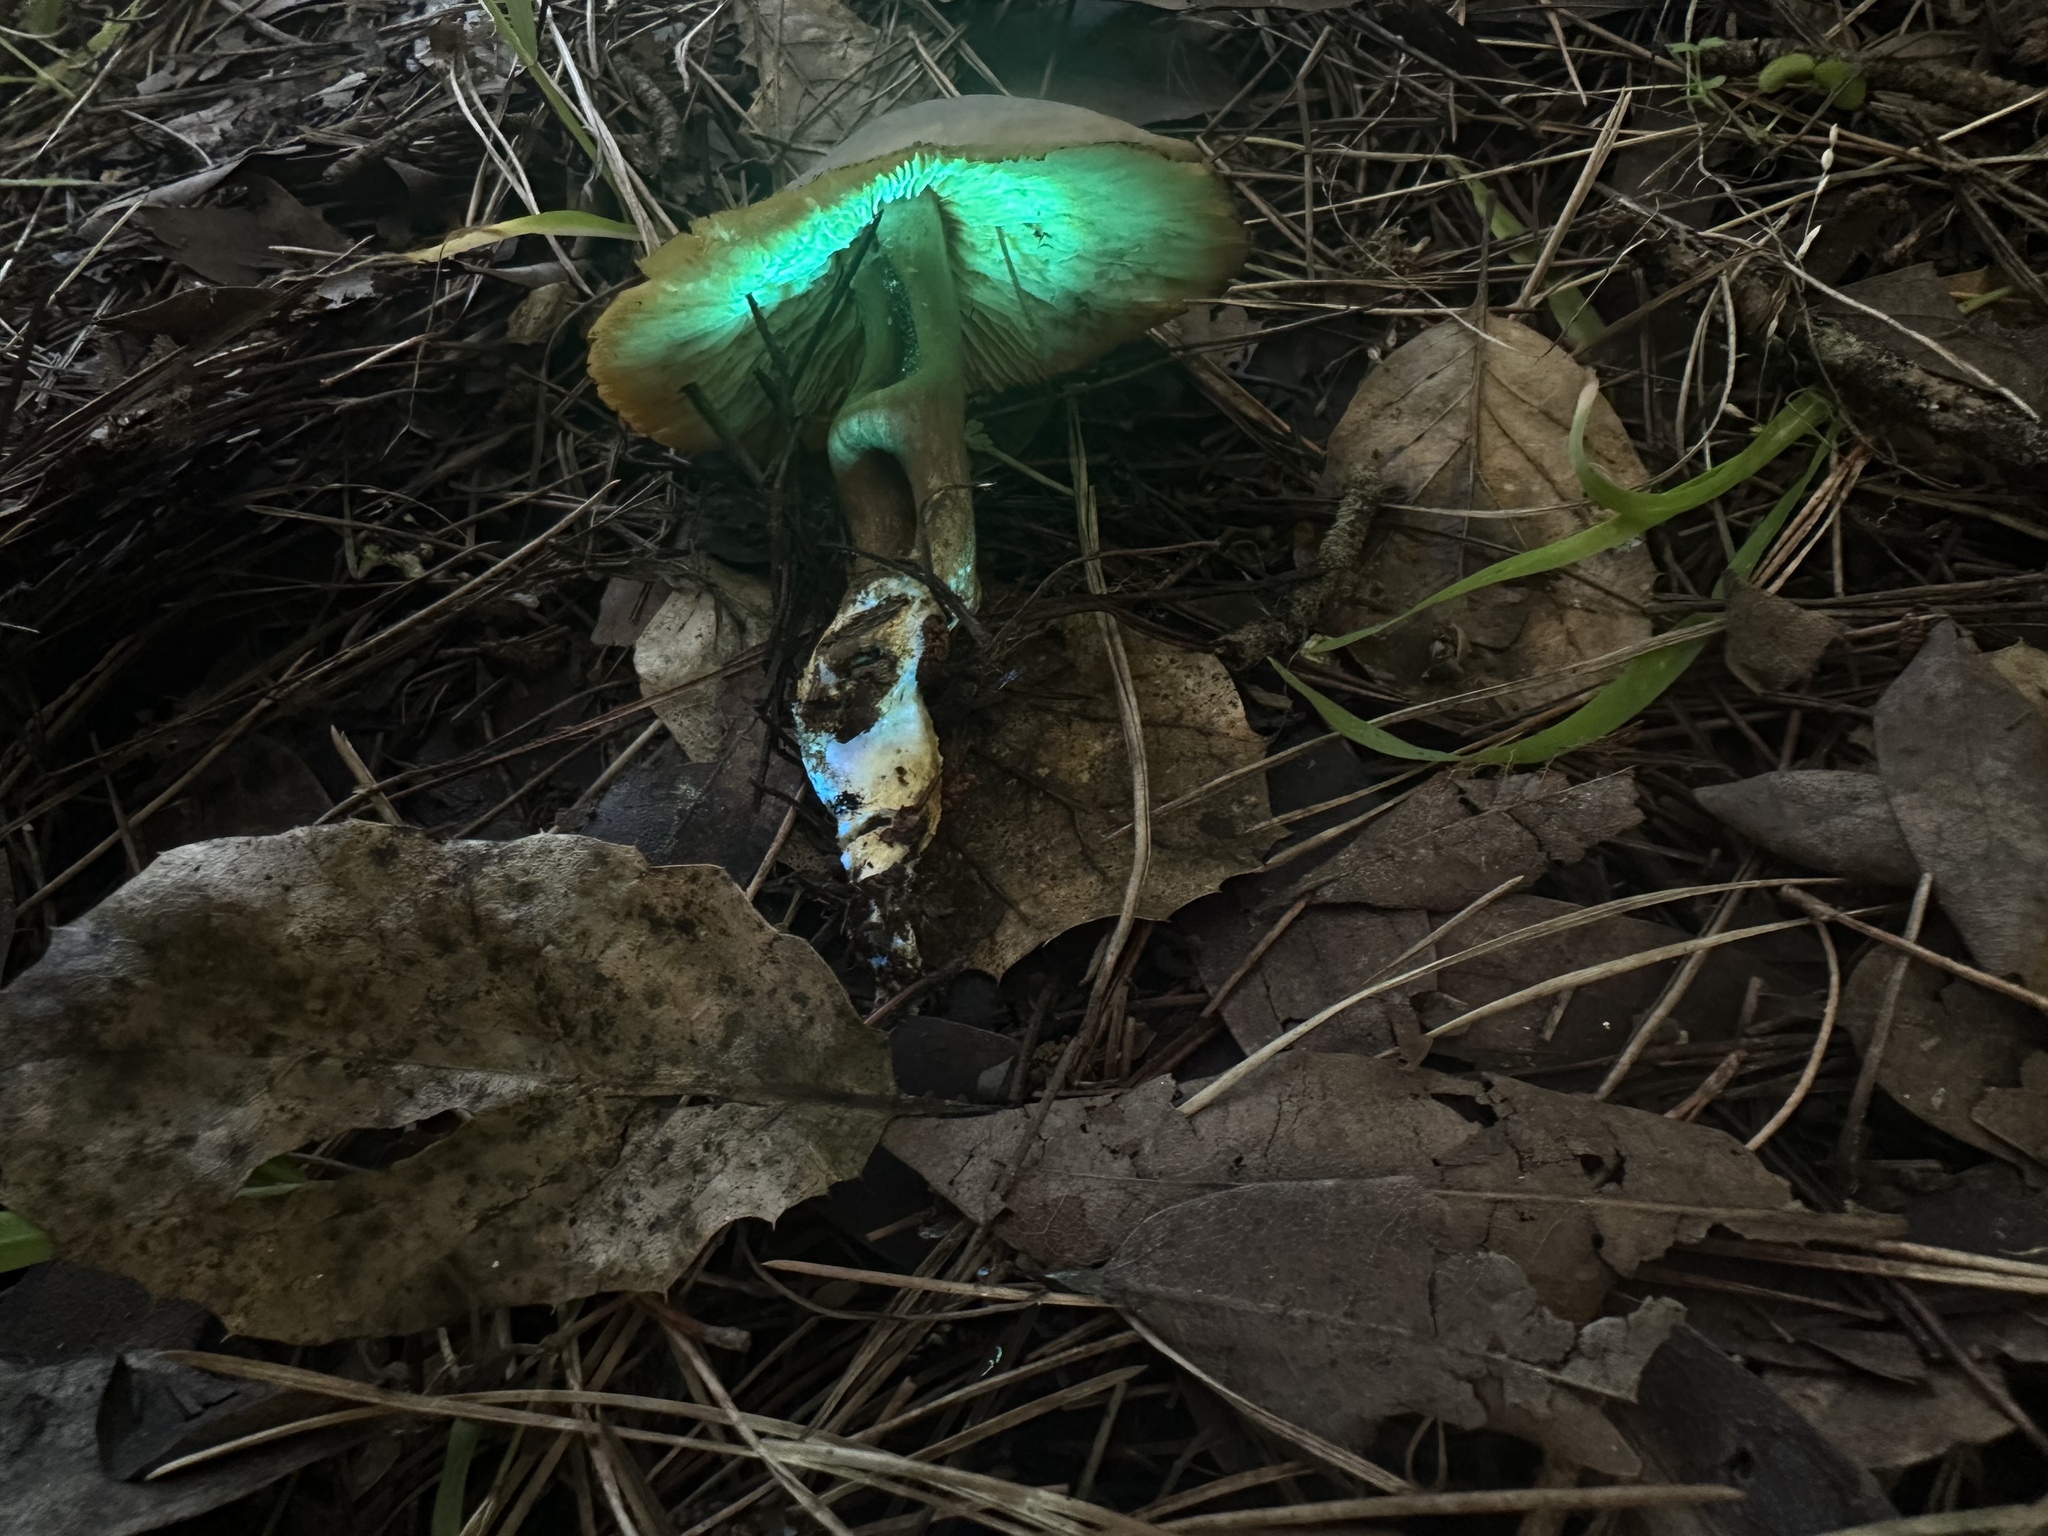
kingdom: Fungi
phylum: Basidiomycota
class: Agaricomycetes
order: Agaricales
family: Callistosporiaceae
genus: Callistosporium
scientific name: Callistosporium luteo-olivaceum
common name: Olive lute
